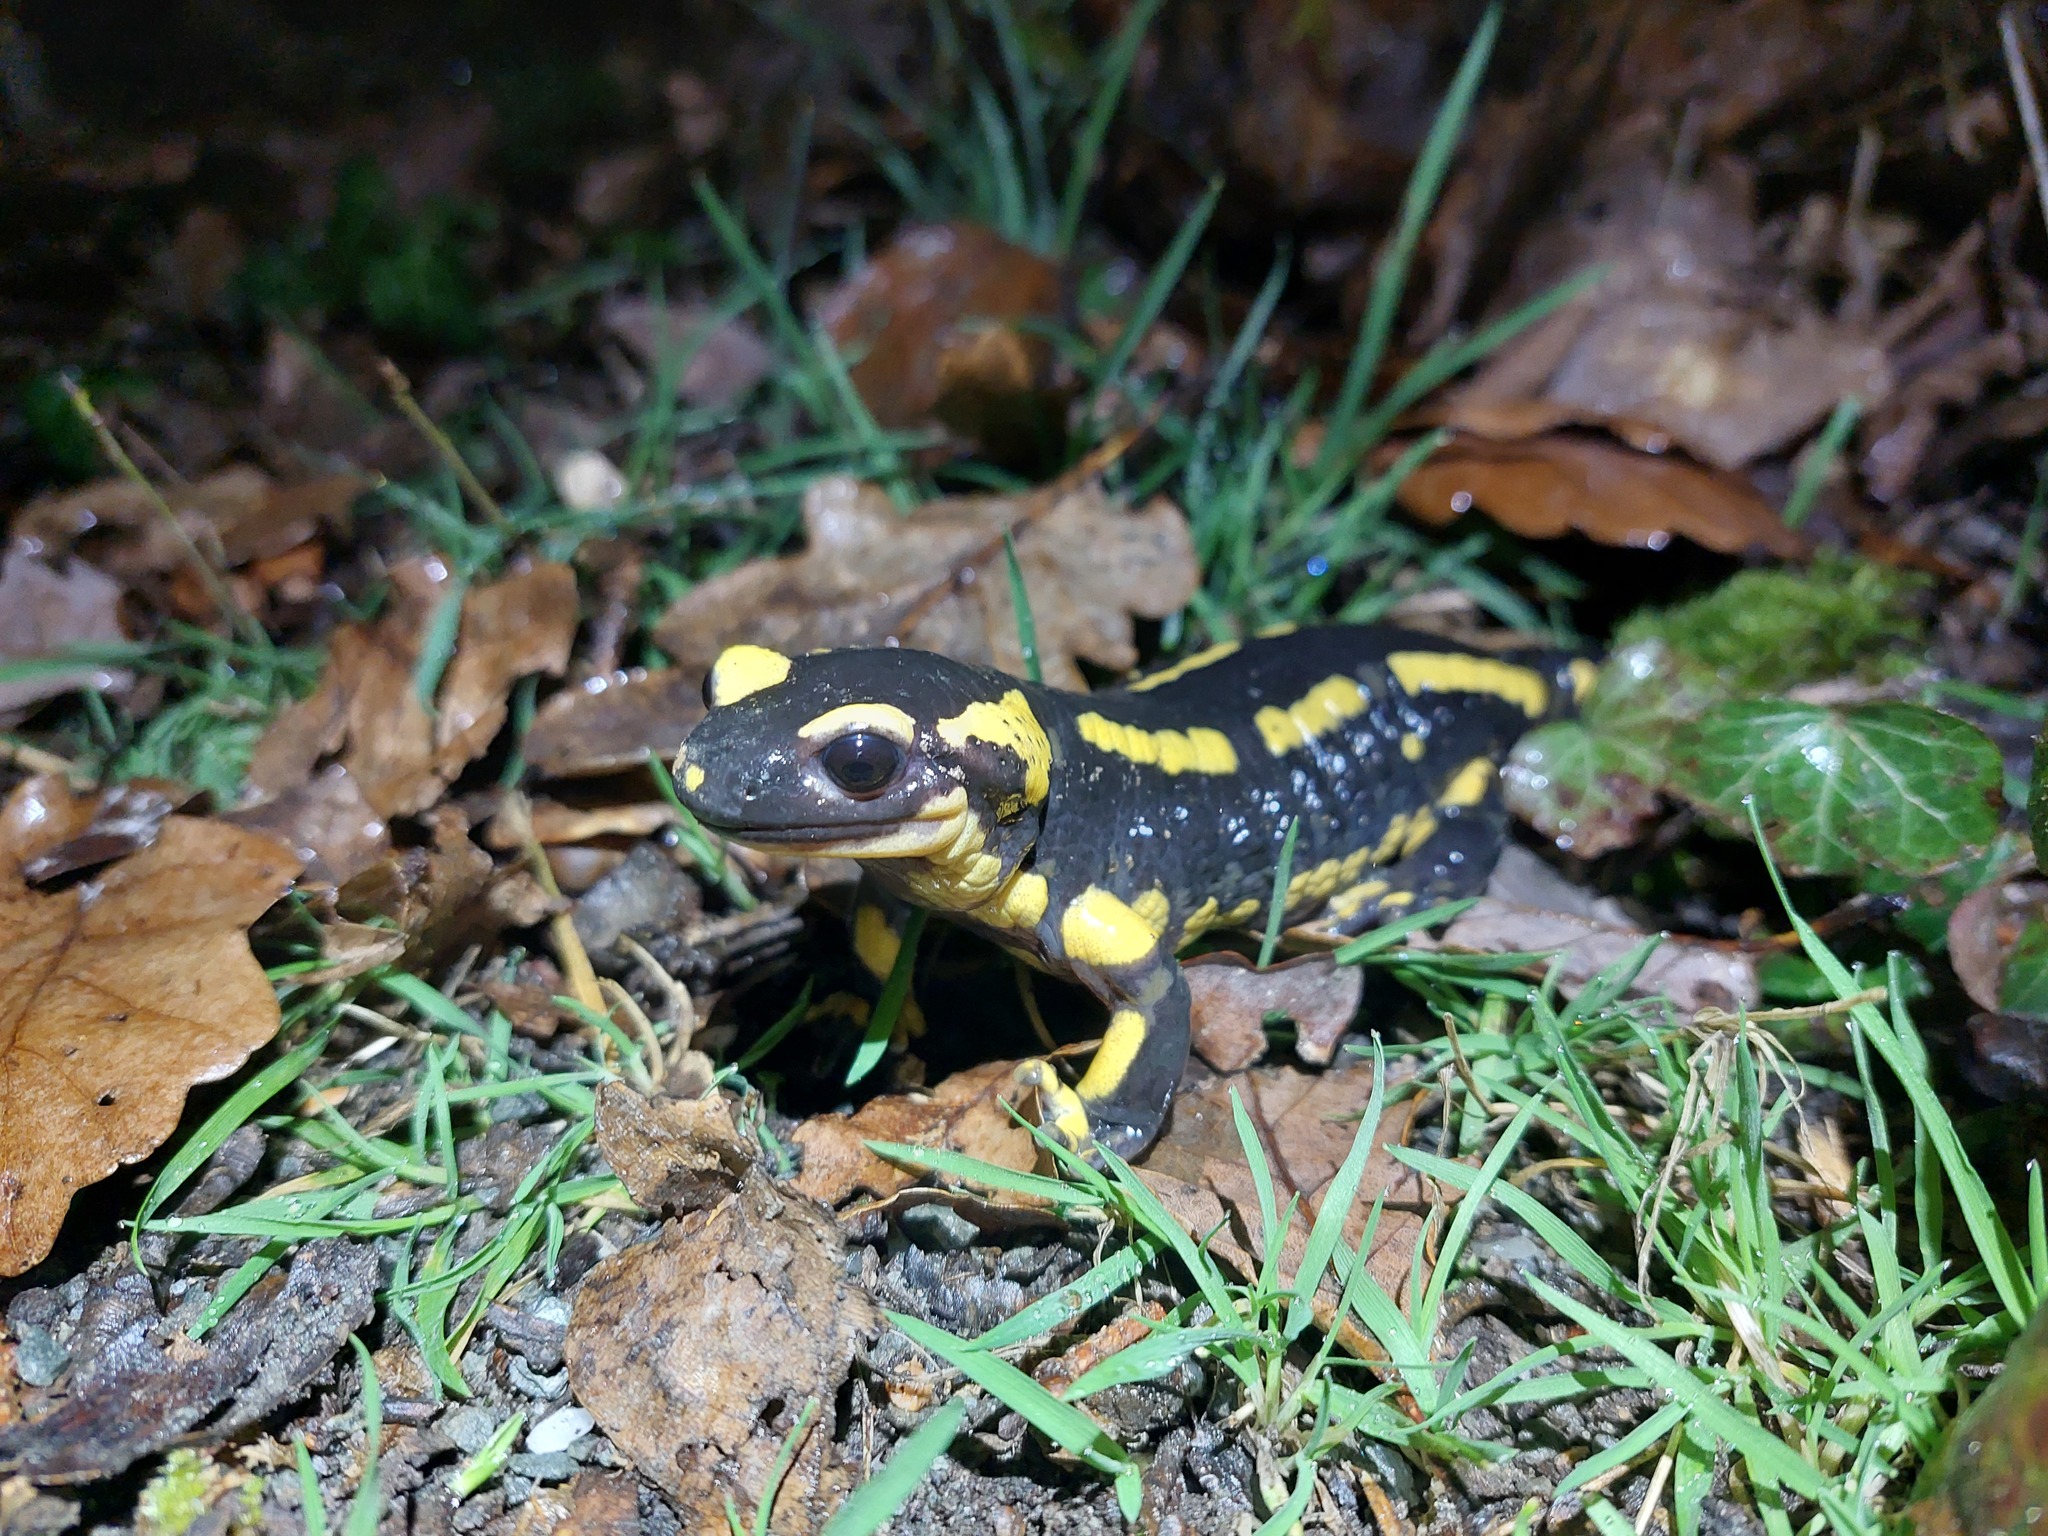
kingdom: Animalia
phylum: Chordata
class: Amphibia
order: Caudata
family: Salamandridae
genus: Salamandra
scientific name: Salamandra salamandra
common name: Fire salamander
